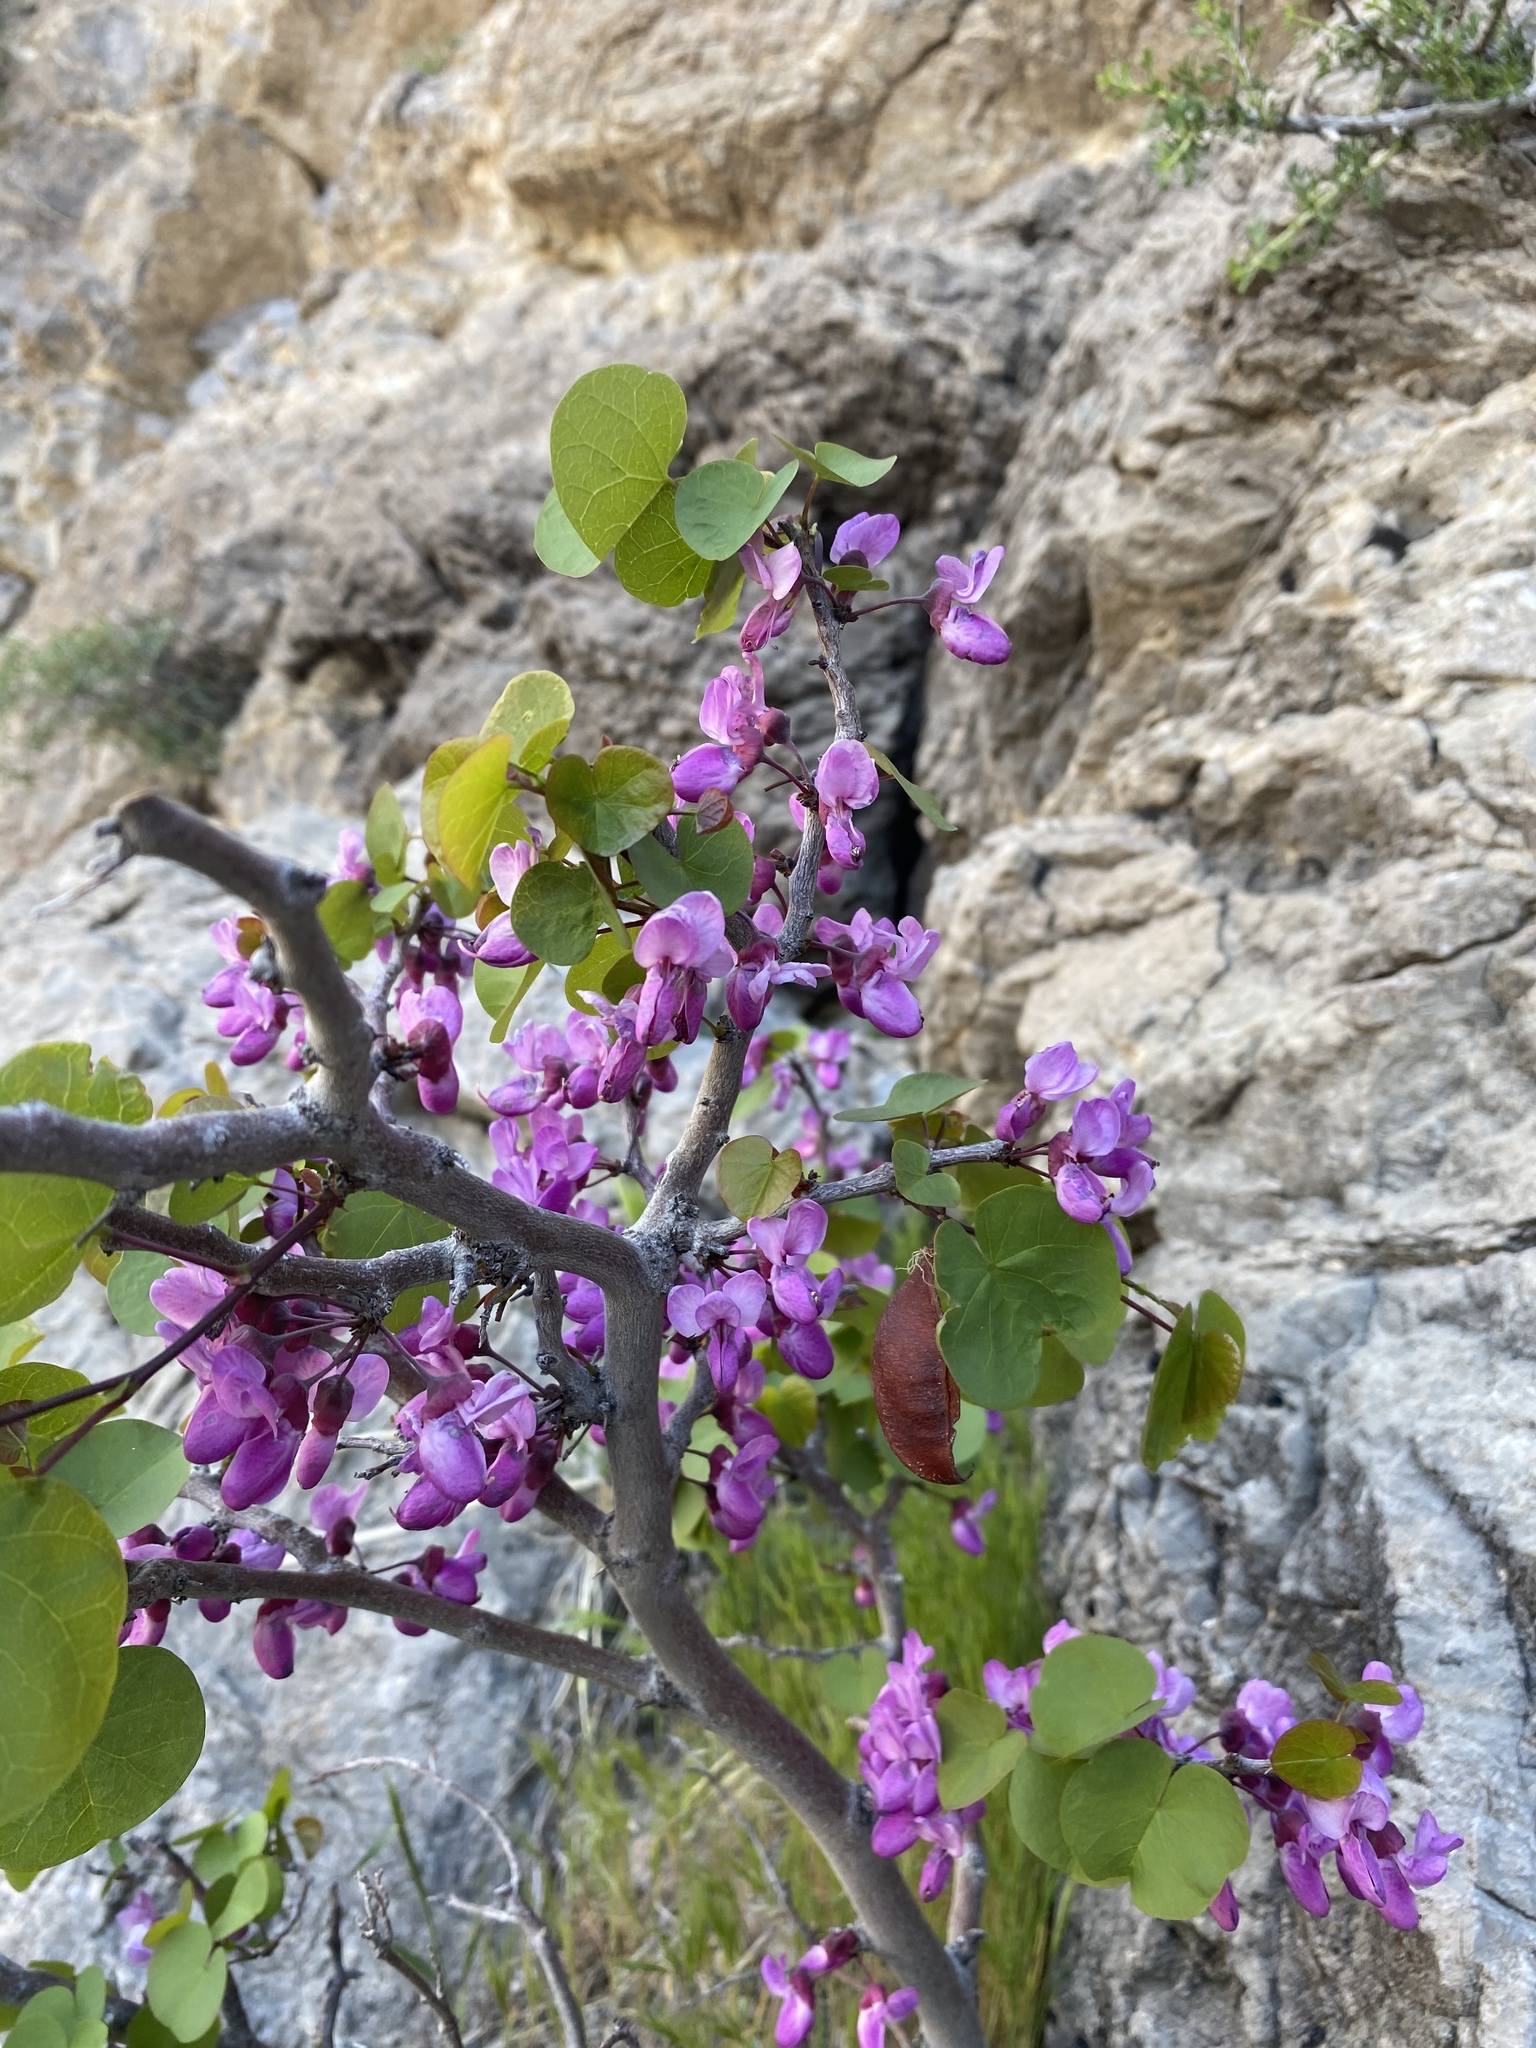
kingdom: Plantae
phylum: Tracheophyta
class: Magnoliopsida
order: Fabales
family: Fabaceae
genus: Cercis
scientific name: Cercis occidentalis
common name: California redbud
